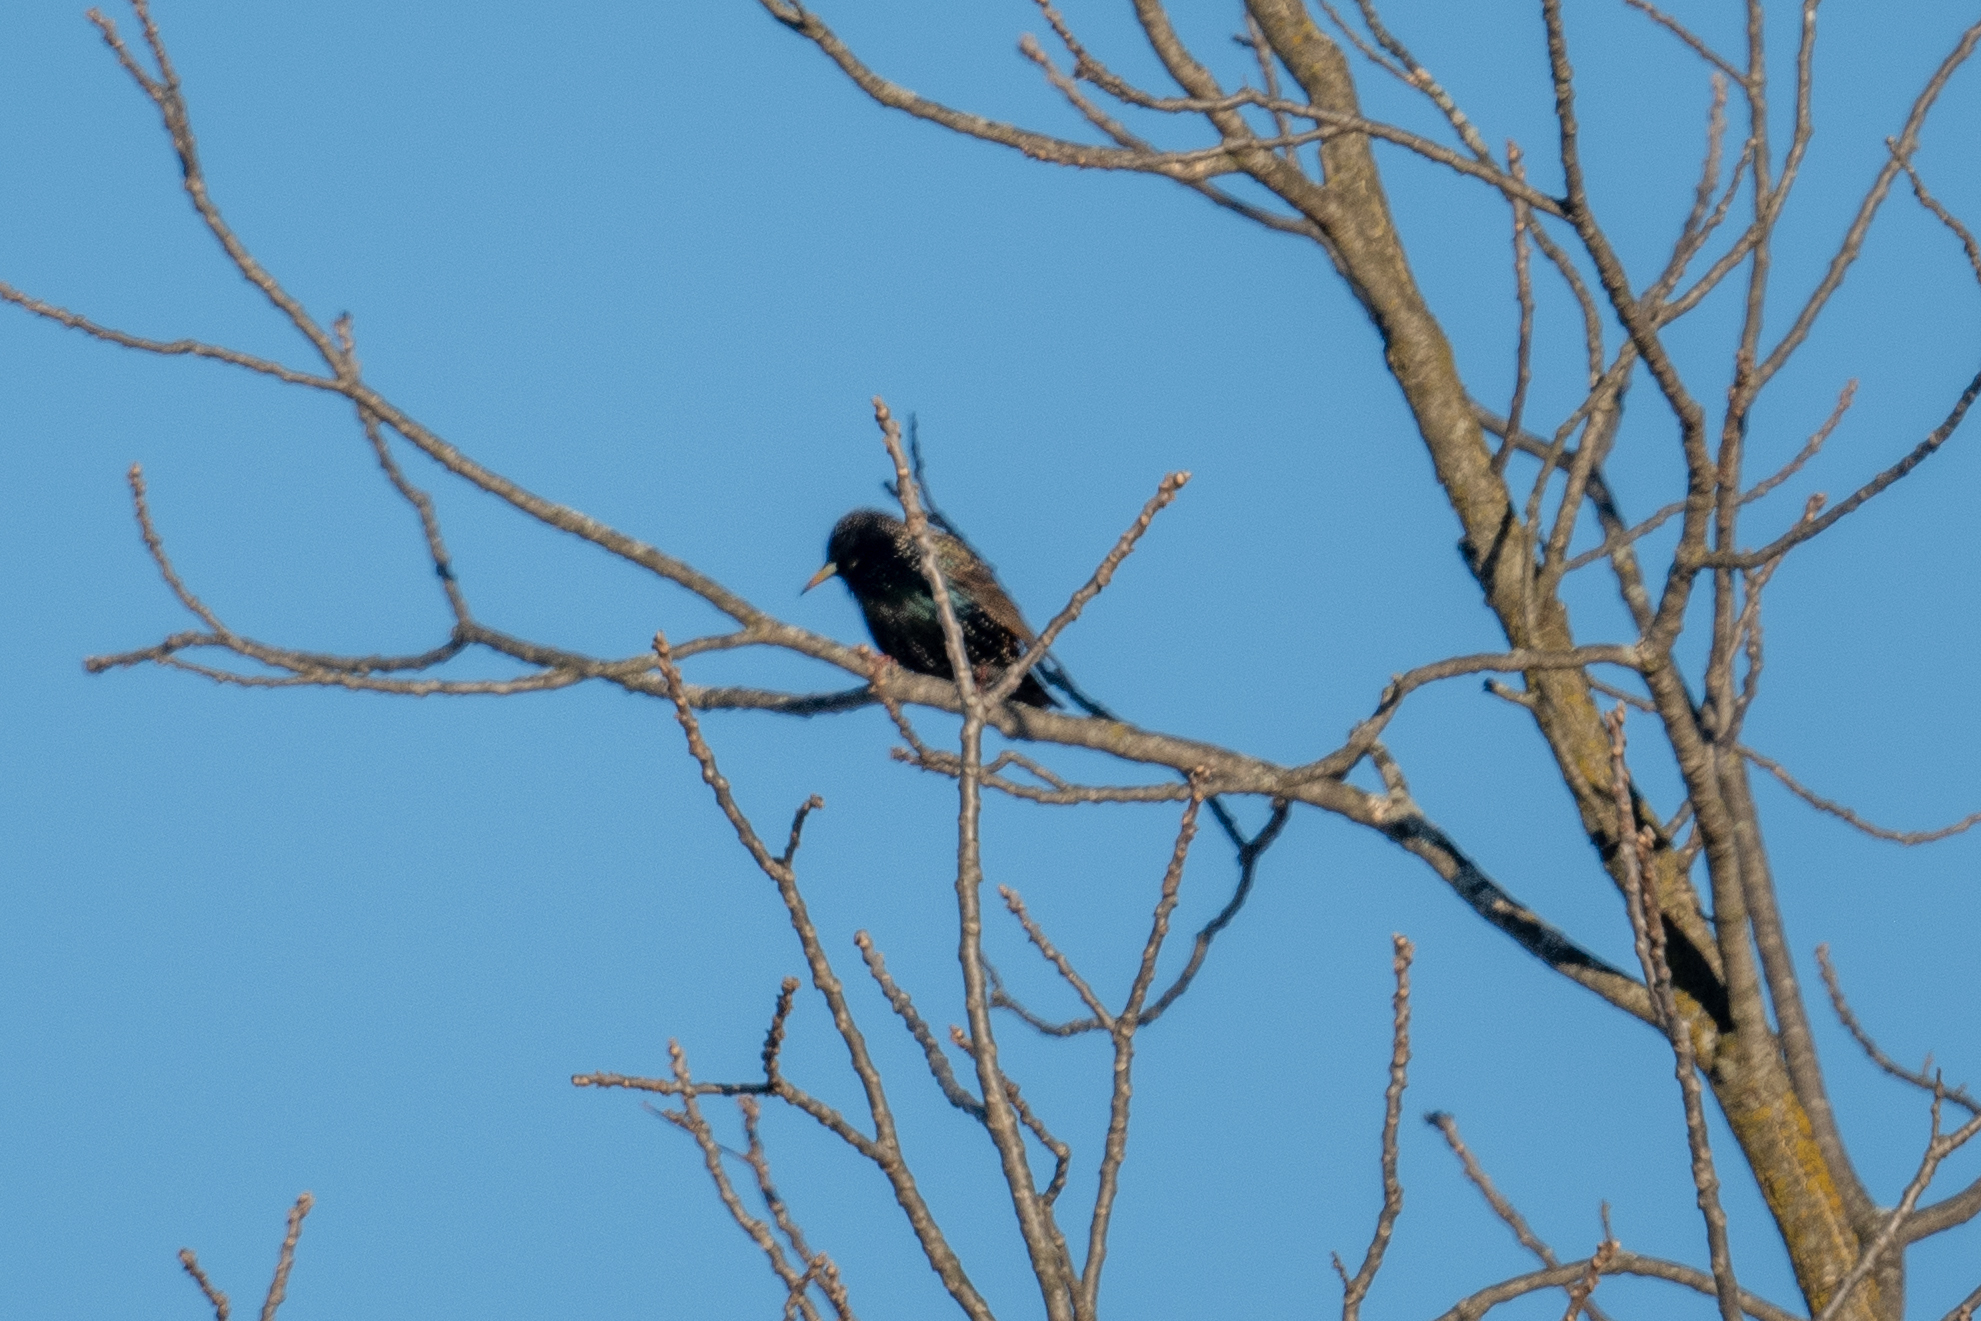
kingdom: Animalia
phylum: Chordata
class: Aves
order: Passeriformes
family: Sturnidae
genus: Sturnus
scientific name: Sturnus vulgaris
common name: Common starling
